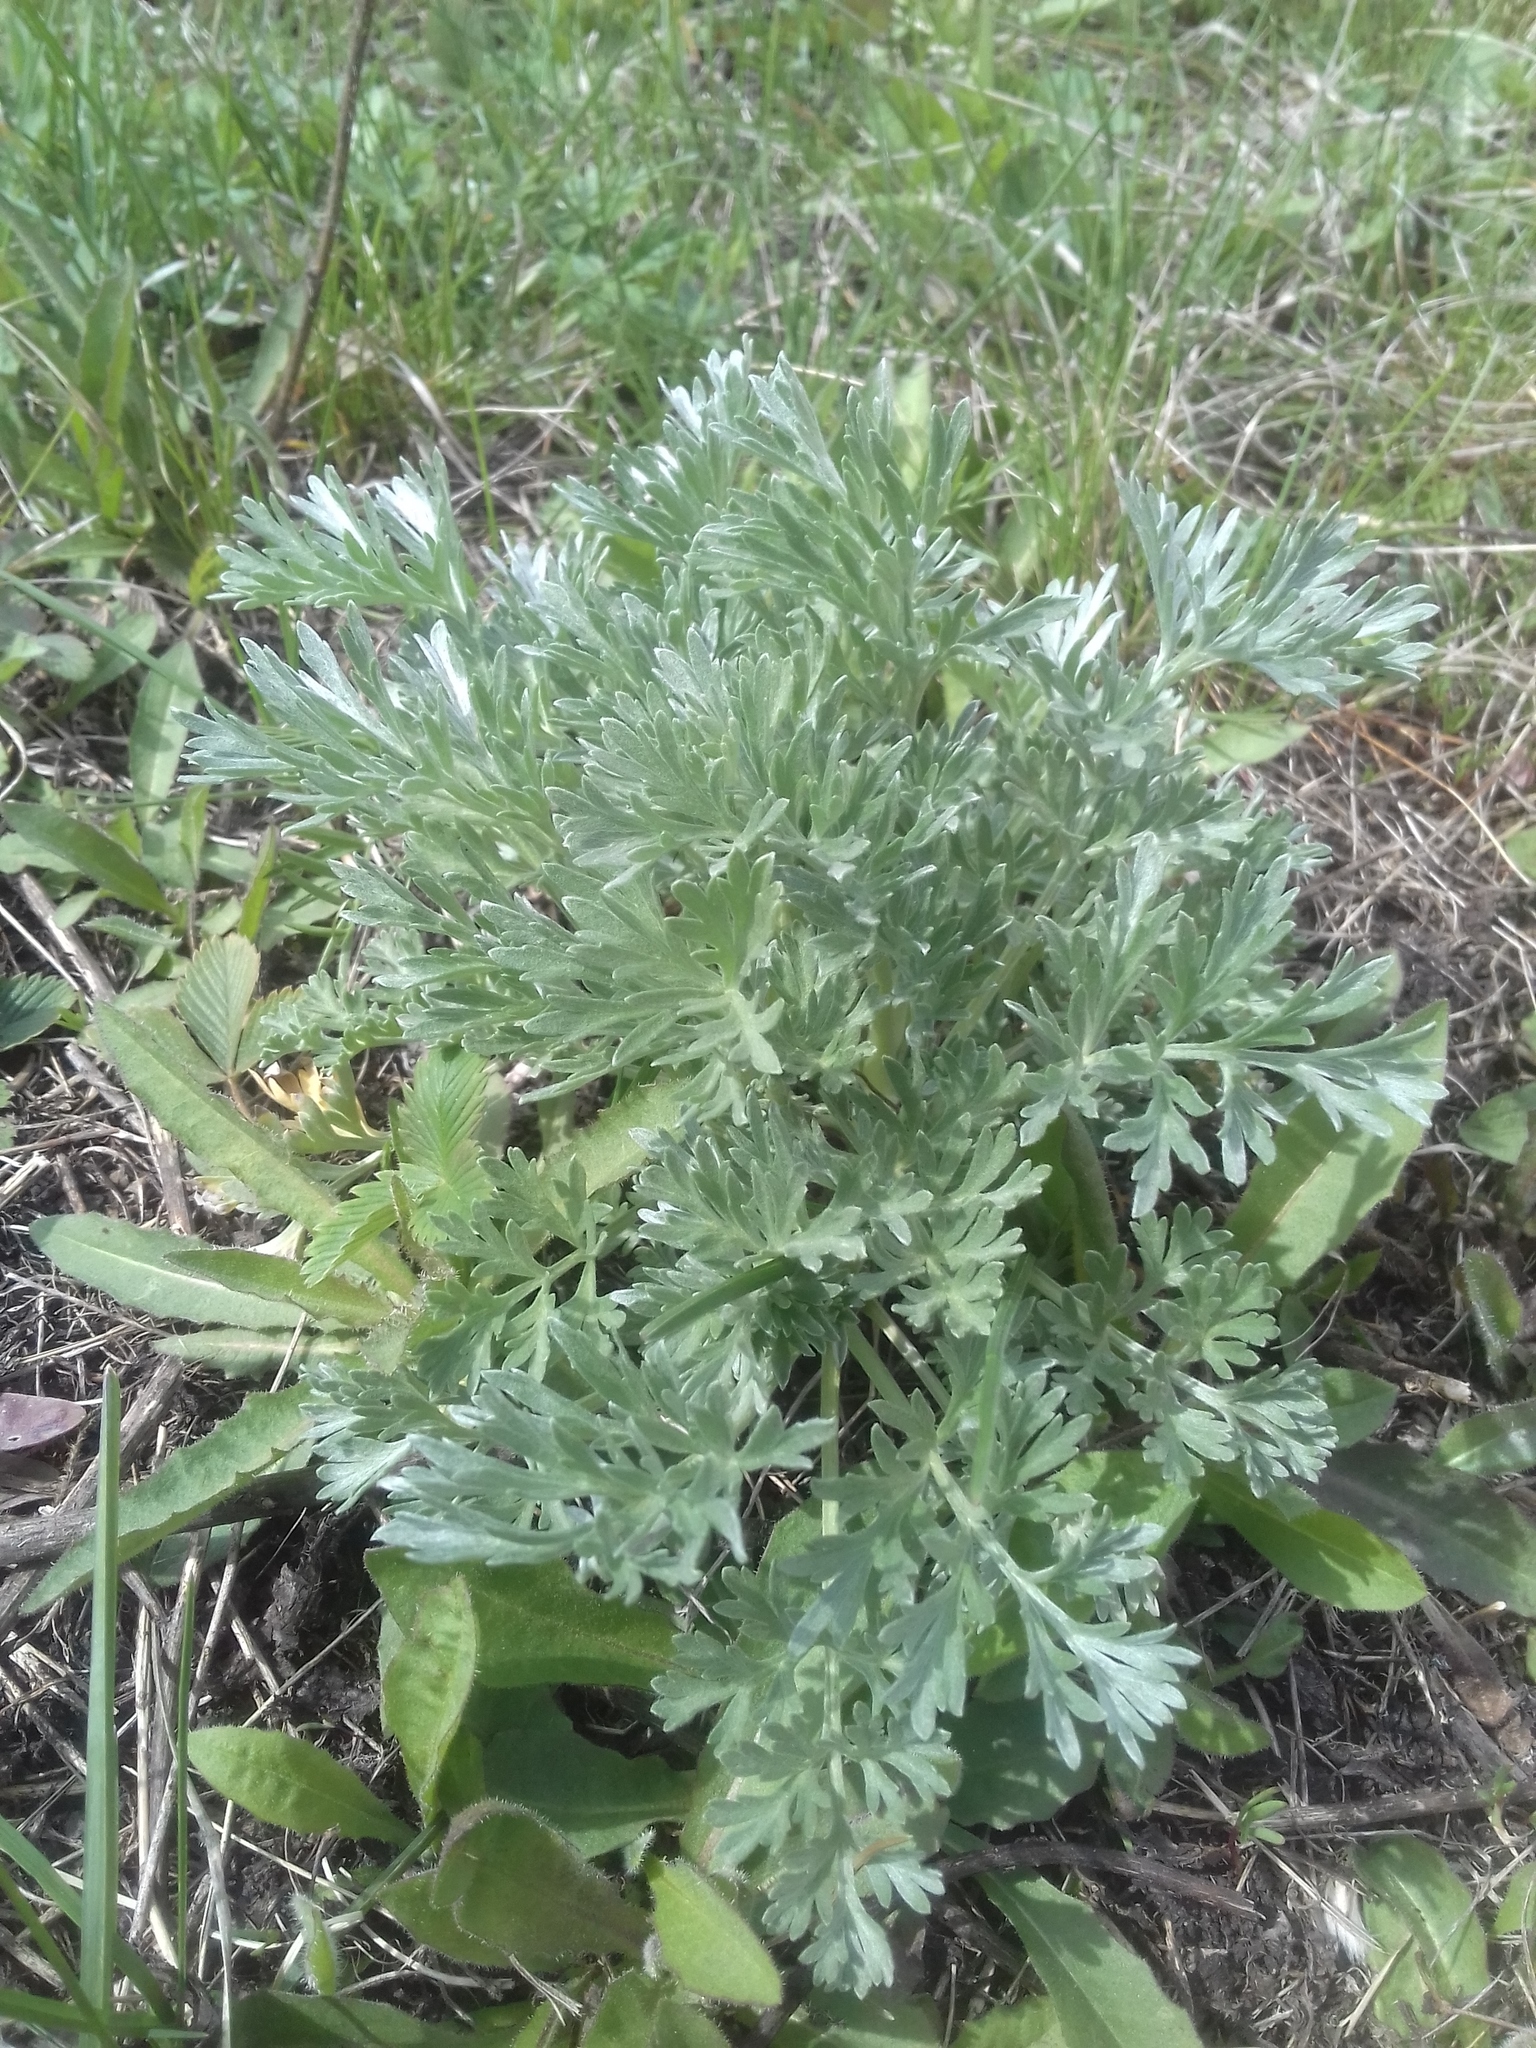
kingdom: Plantae
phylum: Tracheophyta
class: Magnoliopsida
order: Asterales
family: Asteraceae
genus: Artemisia
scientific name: Artemisia absinthium
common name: Wormwood
